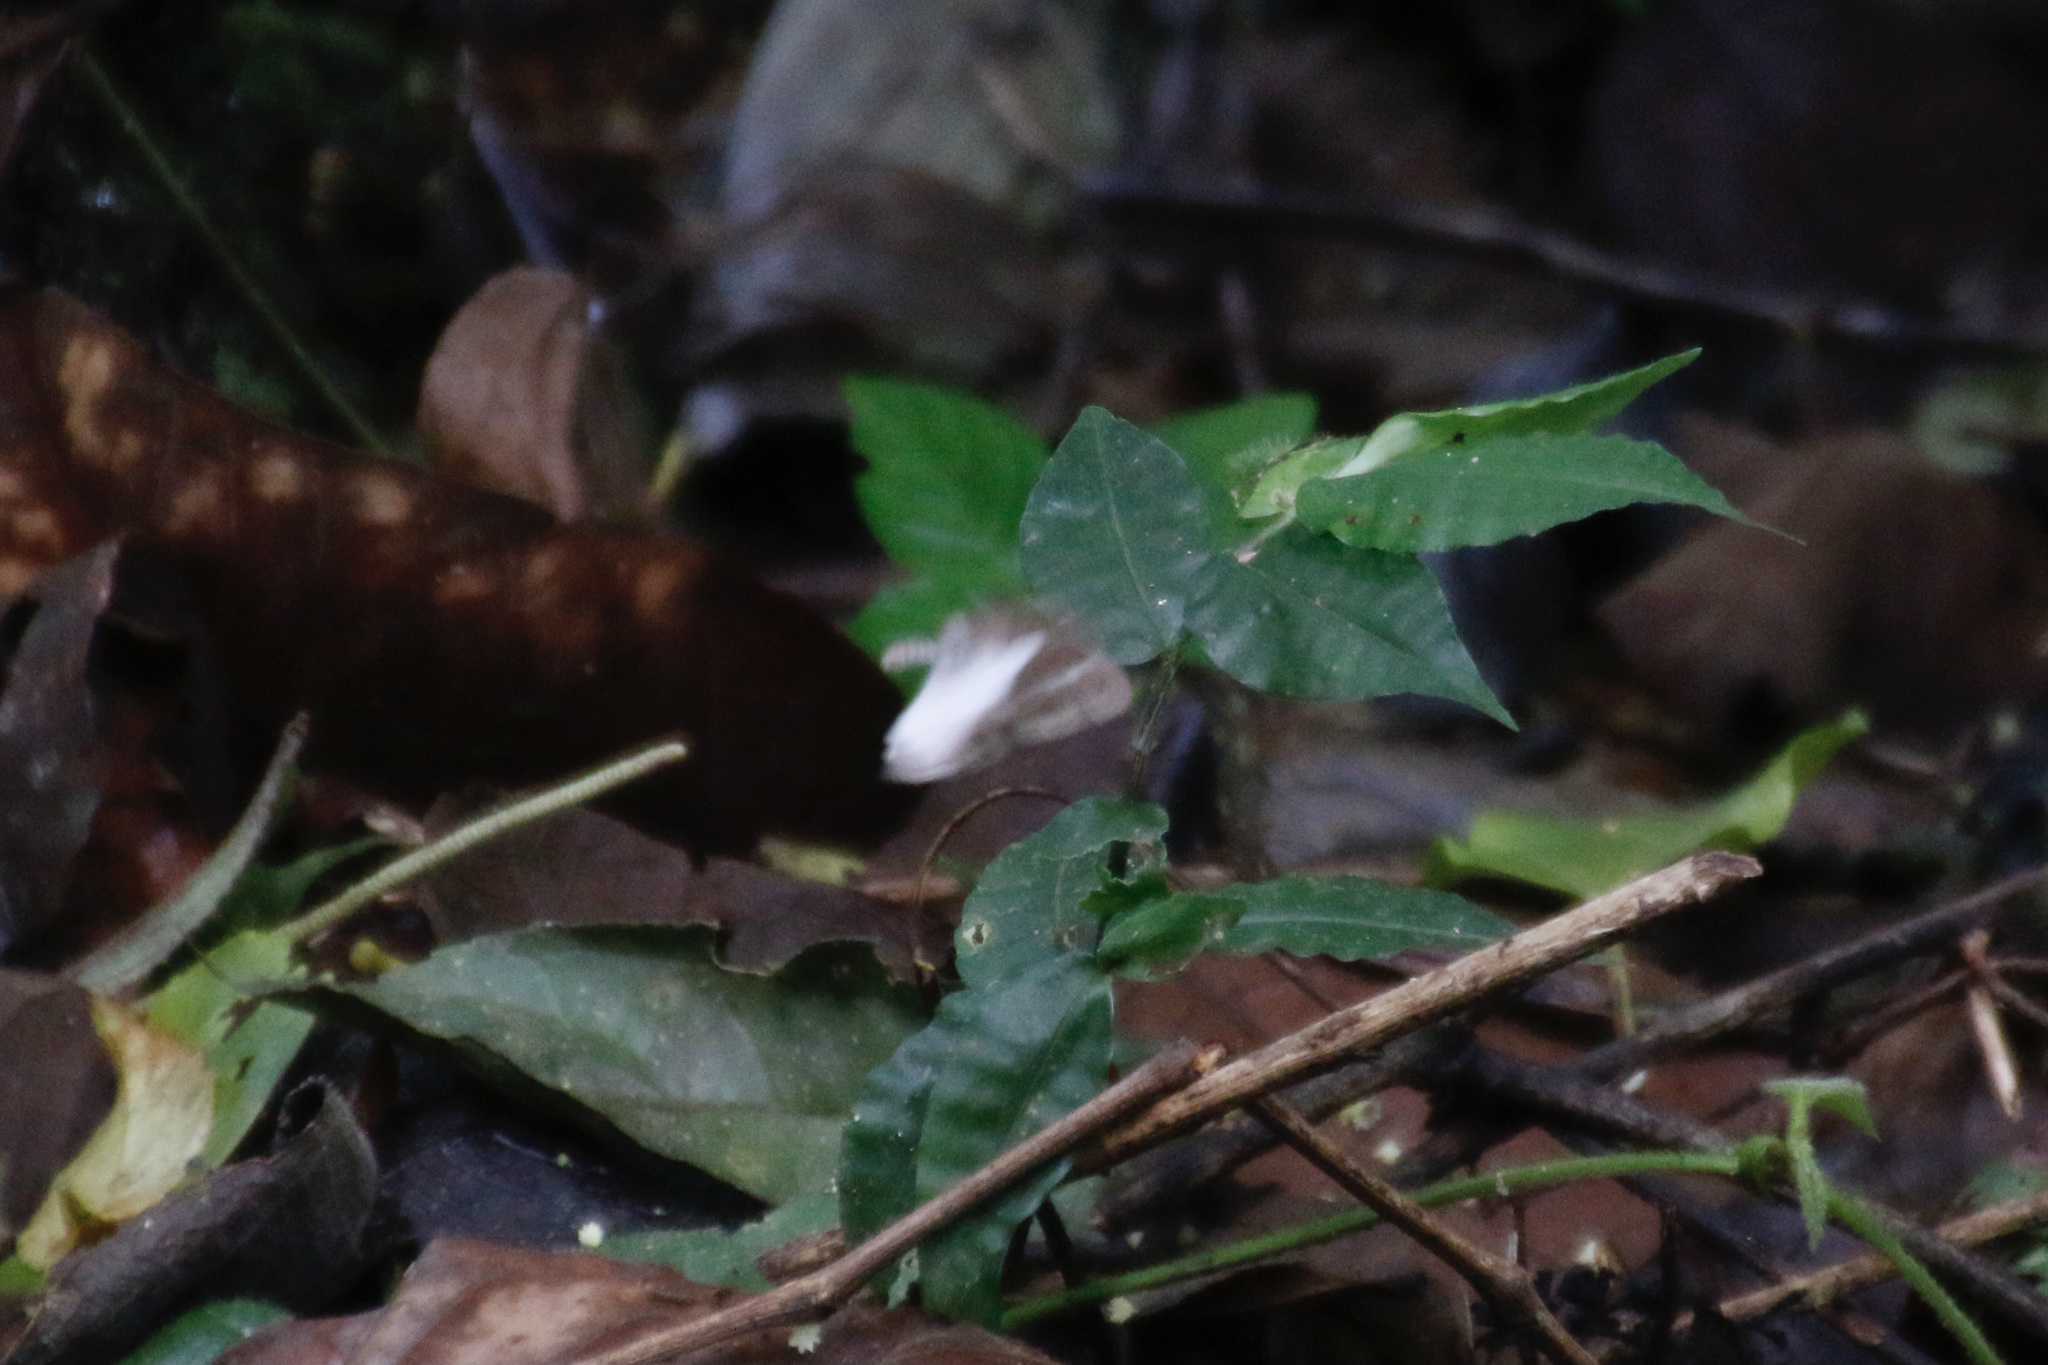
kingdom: Animalia
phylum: Arthropoda
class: Insecta
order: Lepidoptera
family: Nymphalidae
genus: Pareuptychia
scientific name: Pareuptychia metaleuca
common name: White-banded satyr
